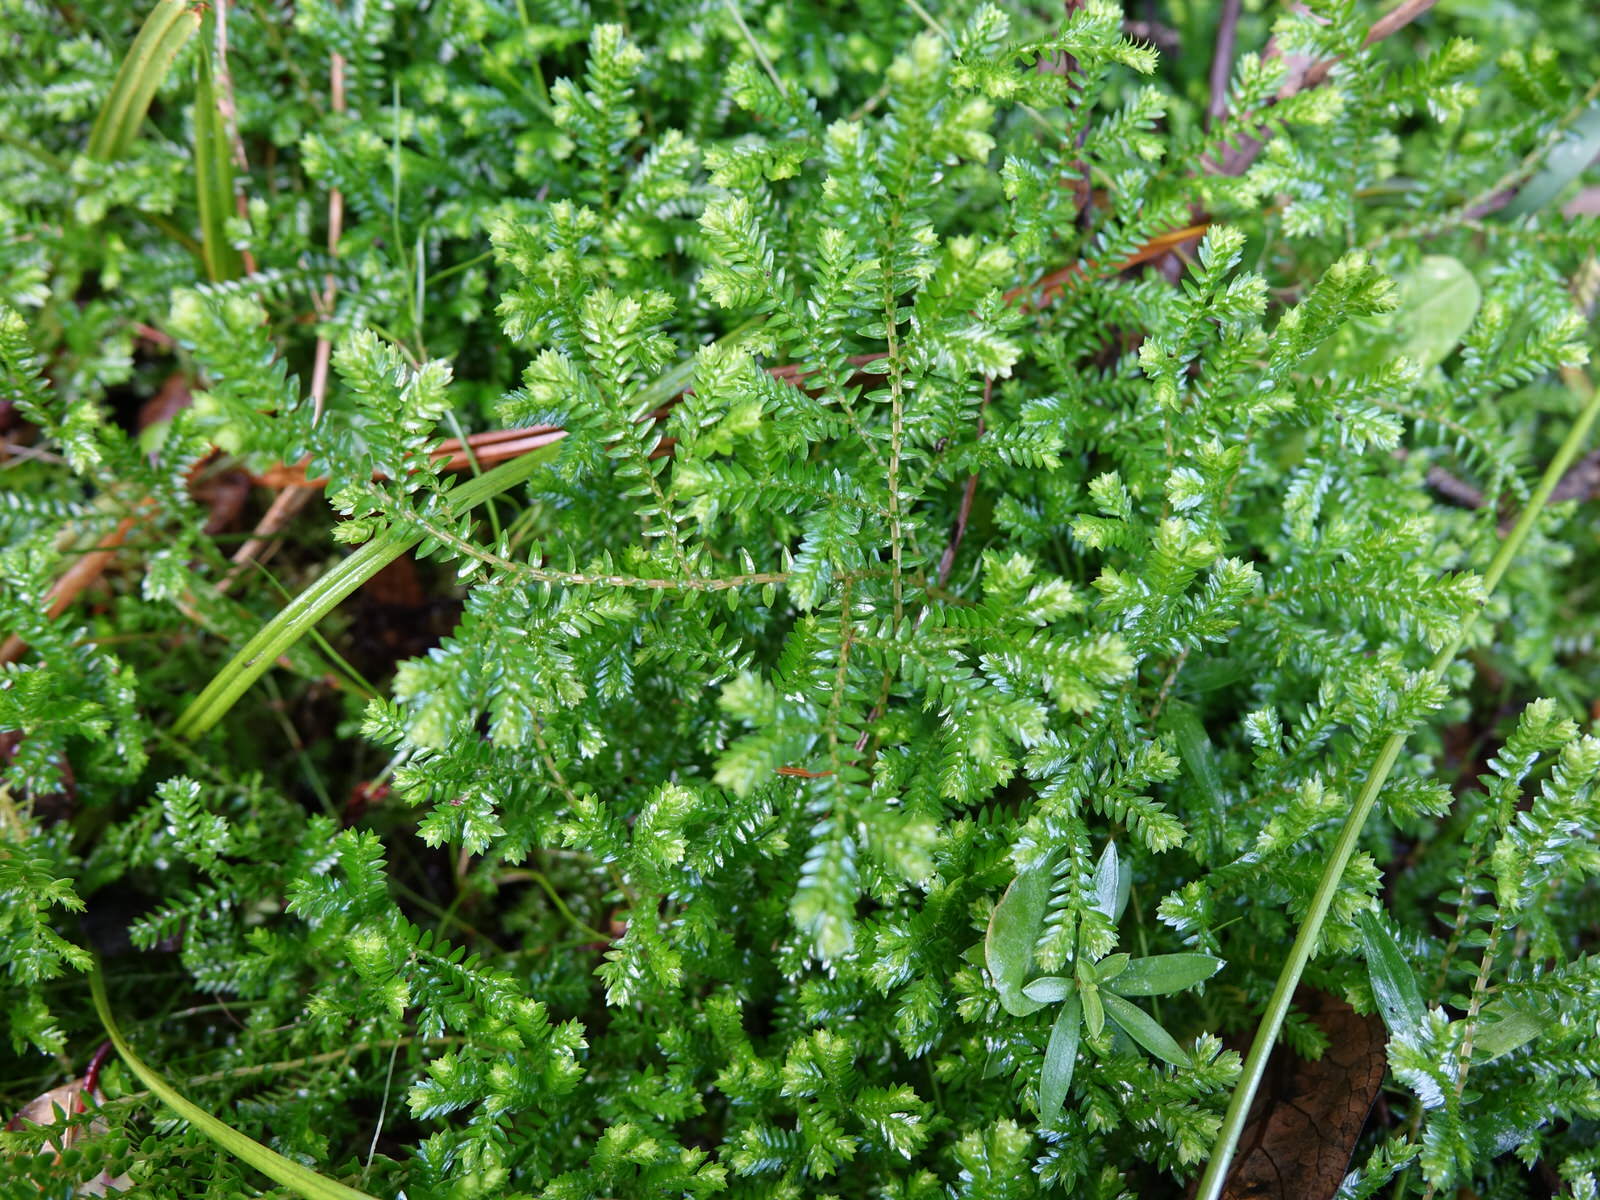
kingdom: Plantae
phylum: Tracheophyta
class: Lycopodiopsida
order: Selaginellales
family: Selaginellaceae
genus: Selaginella
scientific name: Selaginella kraussiana
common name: Krauss' spikemoss
